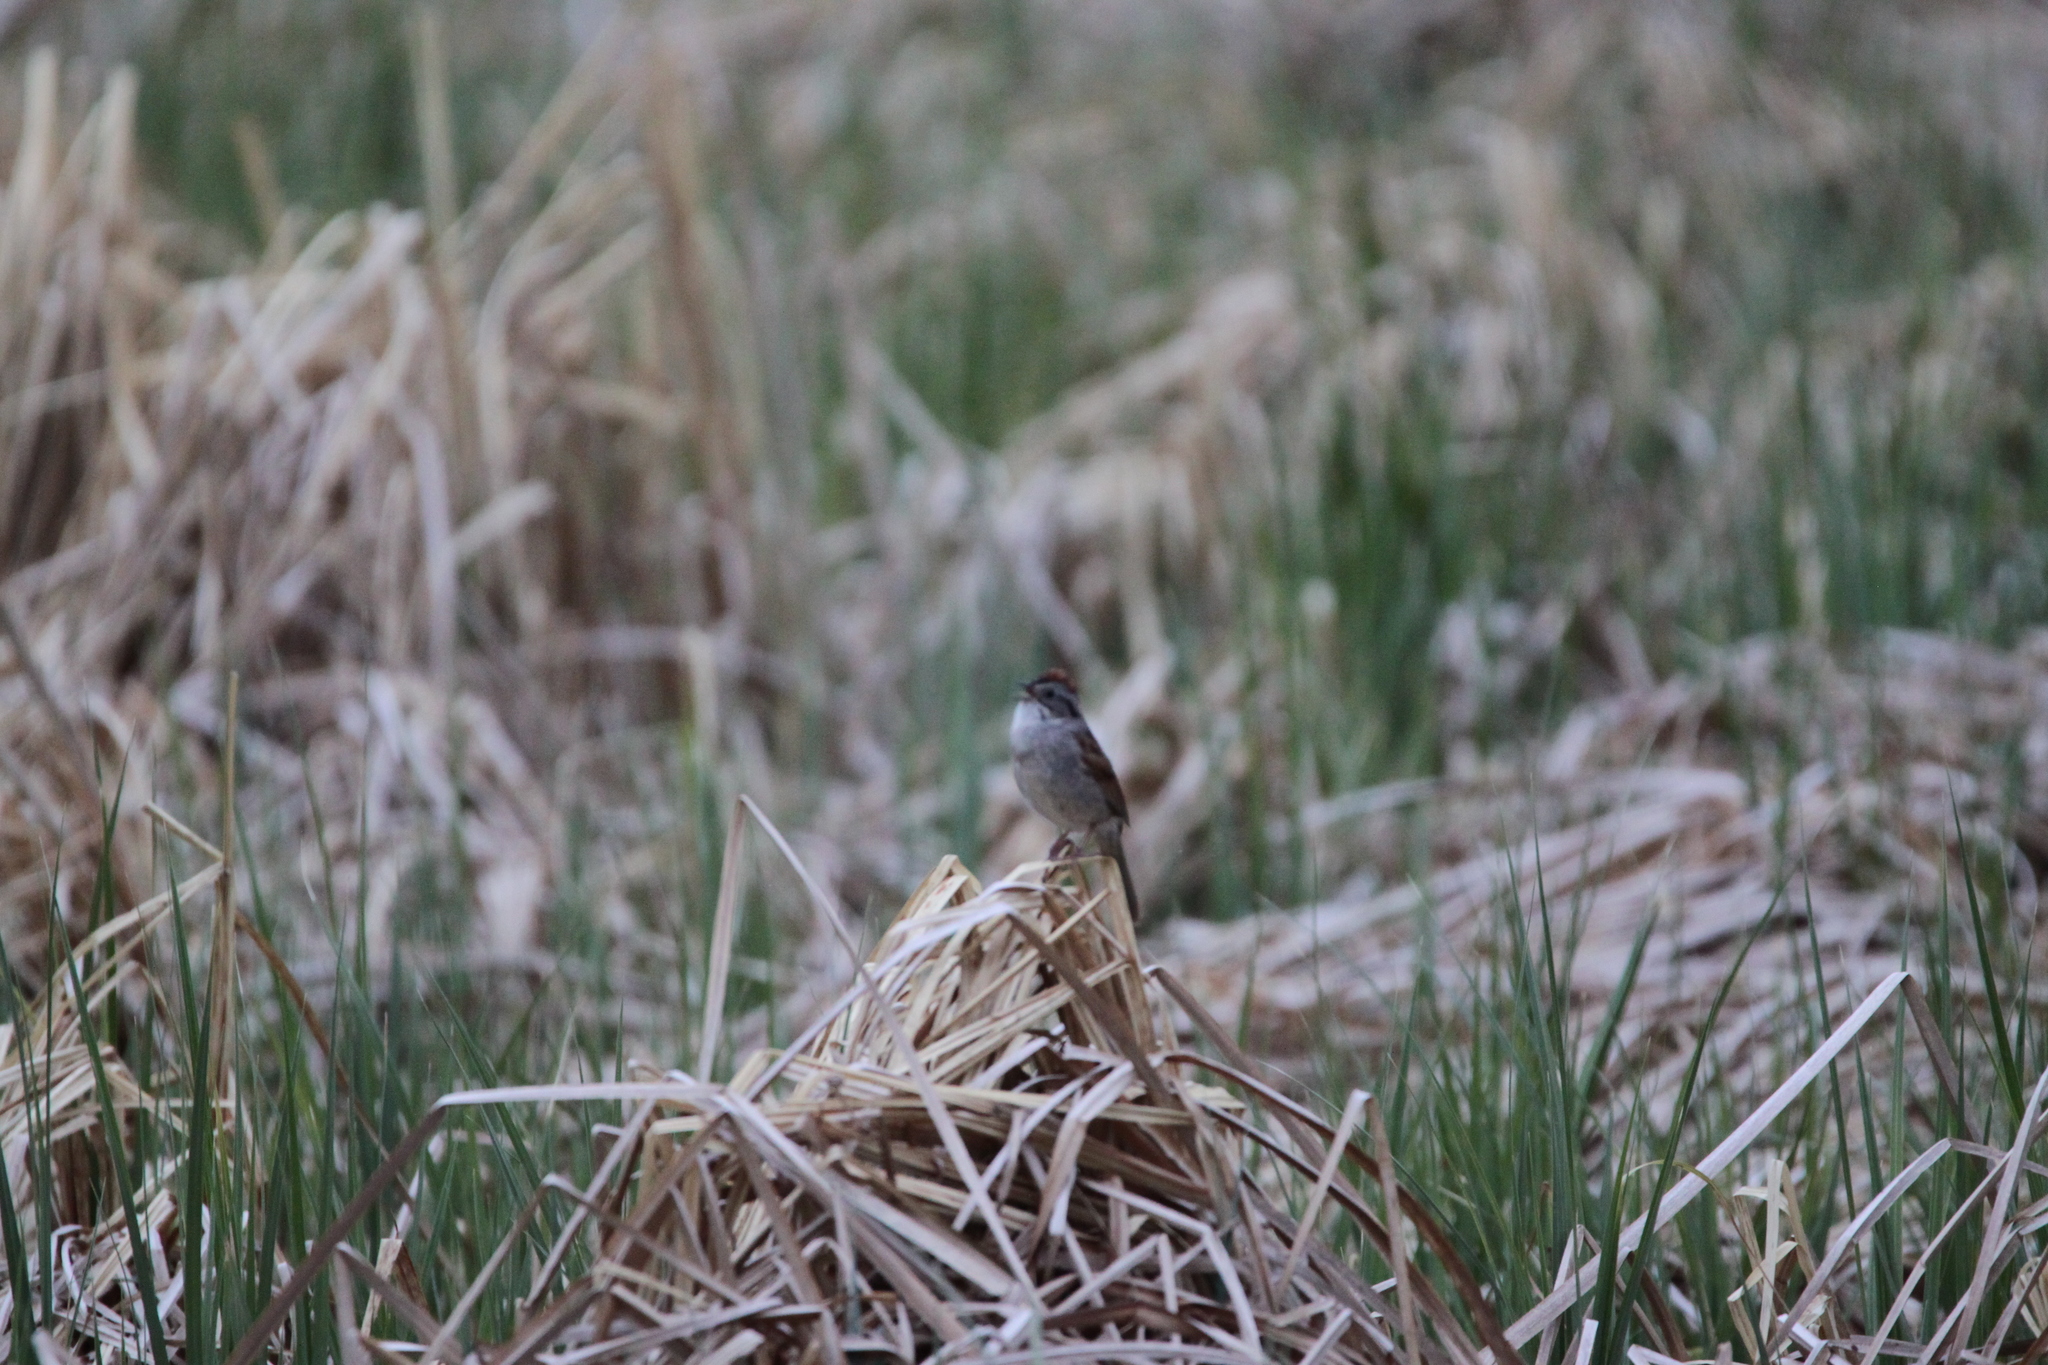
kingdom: Animalia
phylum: Chordata
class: Aves
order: Passeriformes
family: Passerellidae
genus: Melospiza
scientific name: Melospiza georgiana
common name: Swamp sparrow
